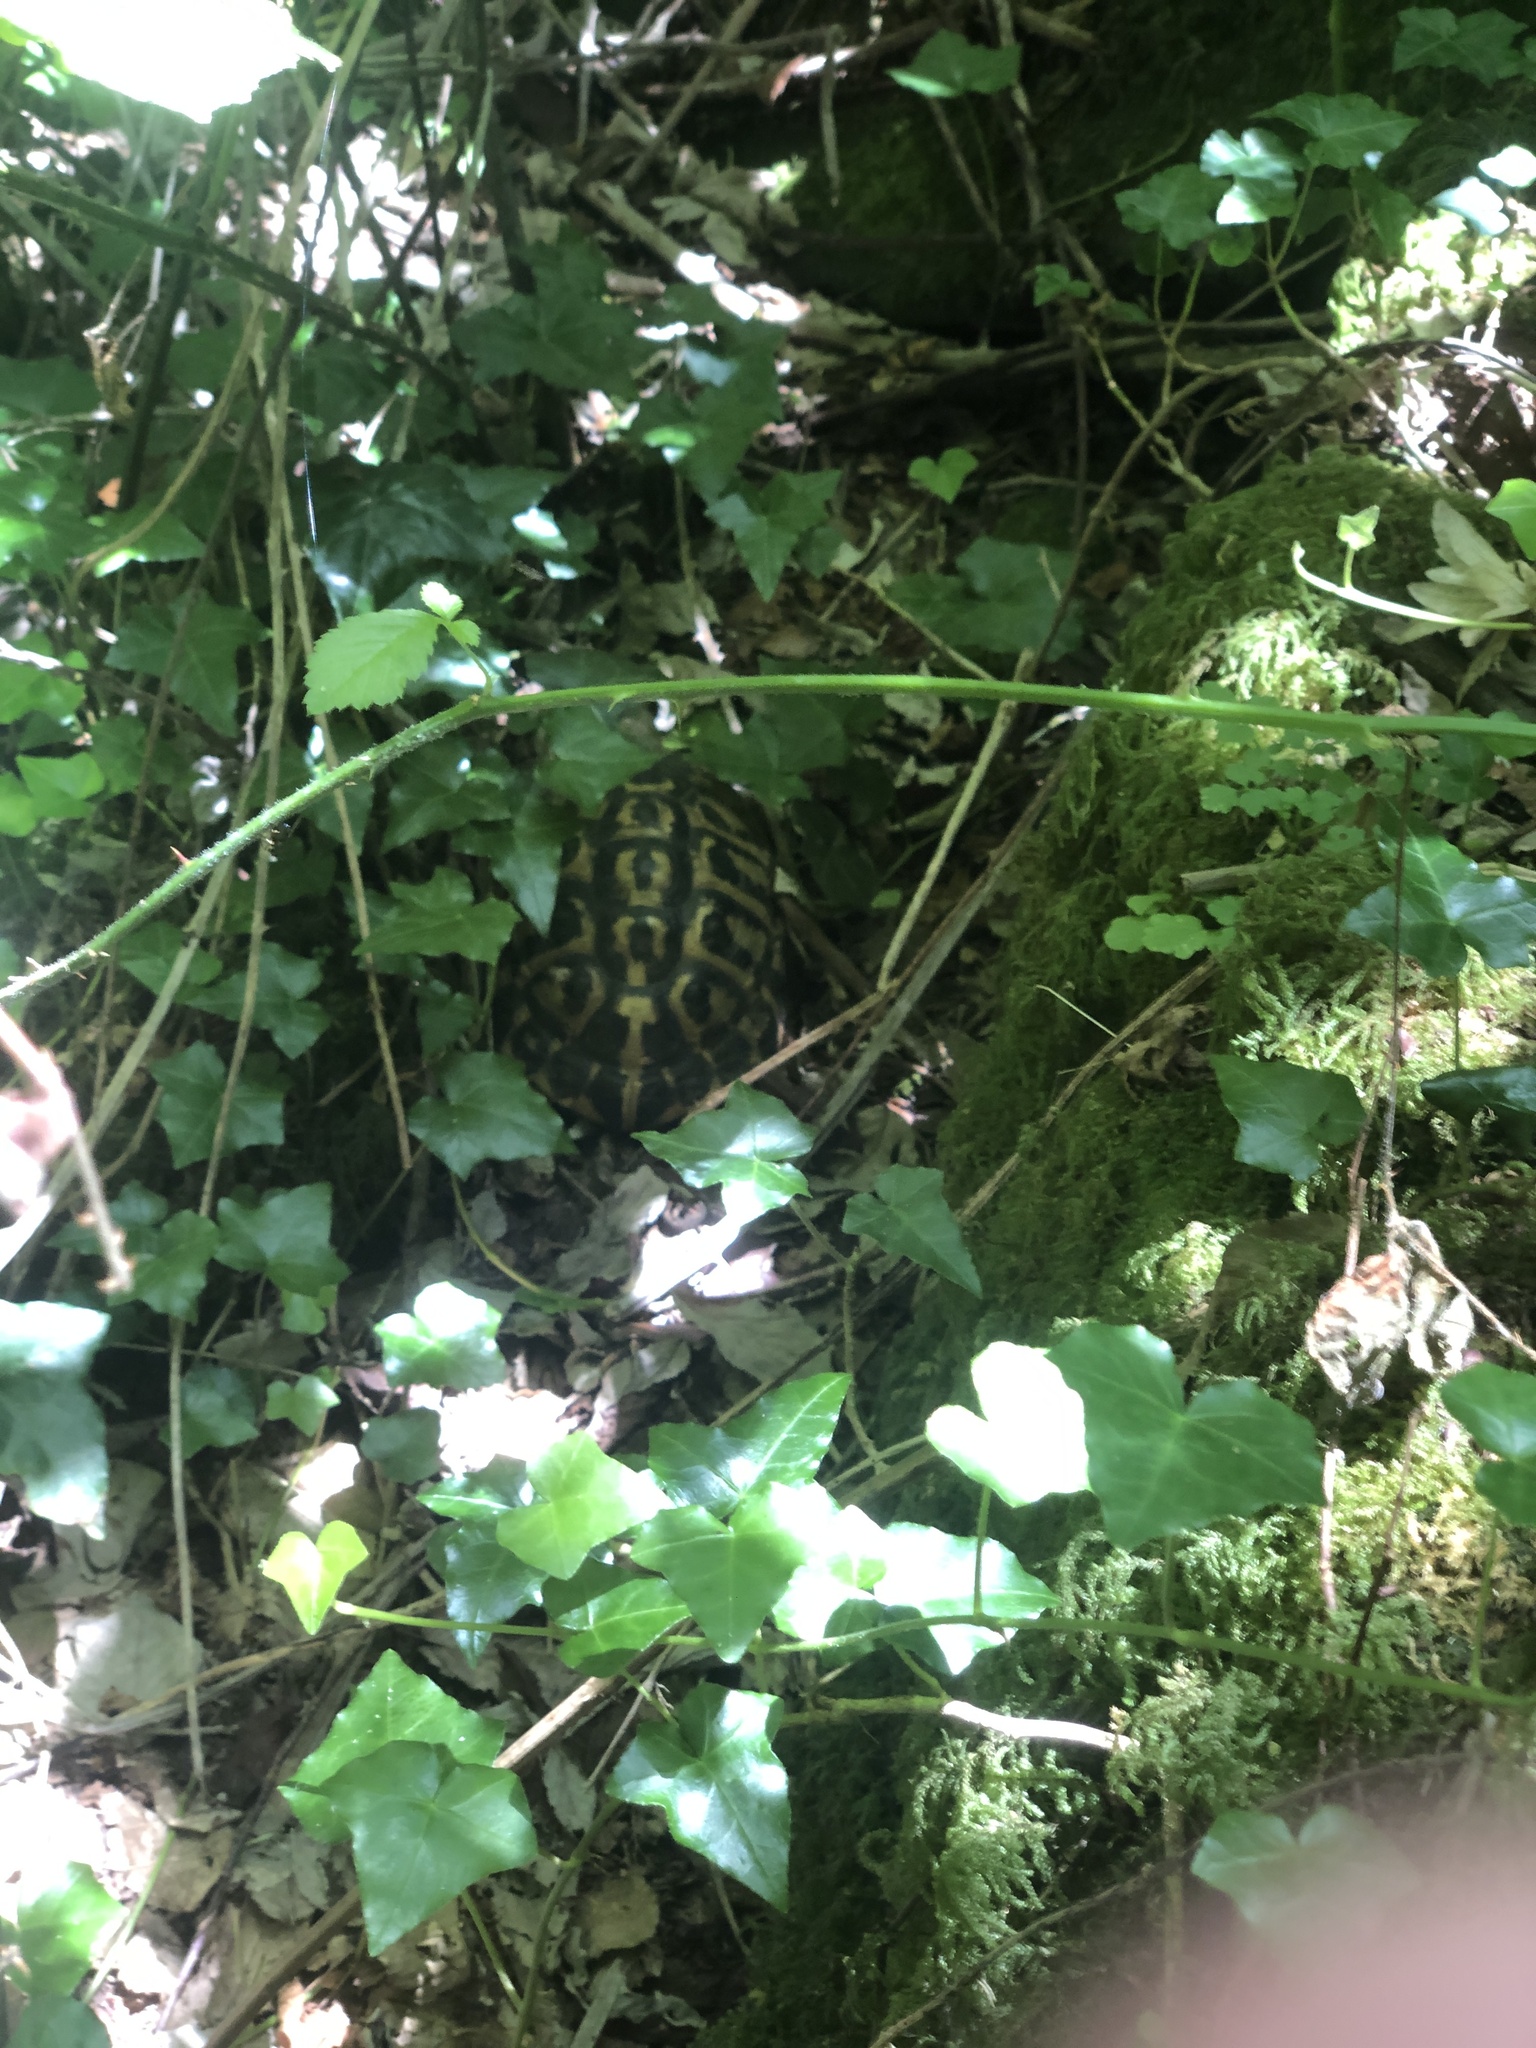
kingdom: Animalia
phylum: Chordata
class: Testudines
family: Testudinidae
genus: Testudo
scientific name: Testudo hermanni
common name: Hermann's tortoise
